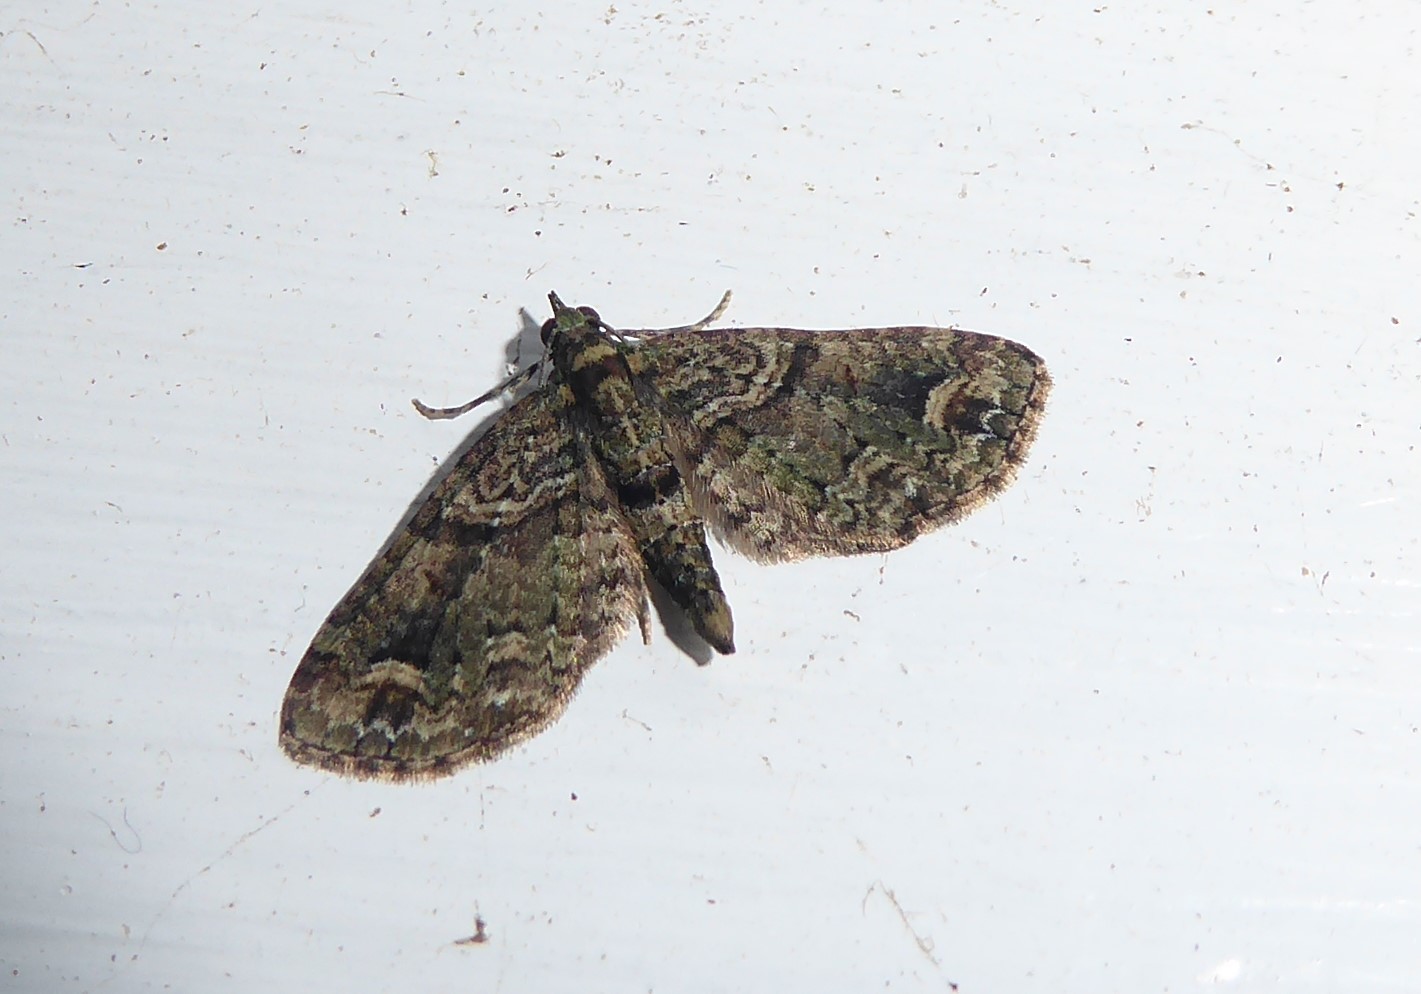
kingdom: Animalia
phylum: Arthropoda
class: Insecta
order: Lepidoptera
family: Geometridae
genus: Idaea
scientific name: Idaea mutanda
